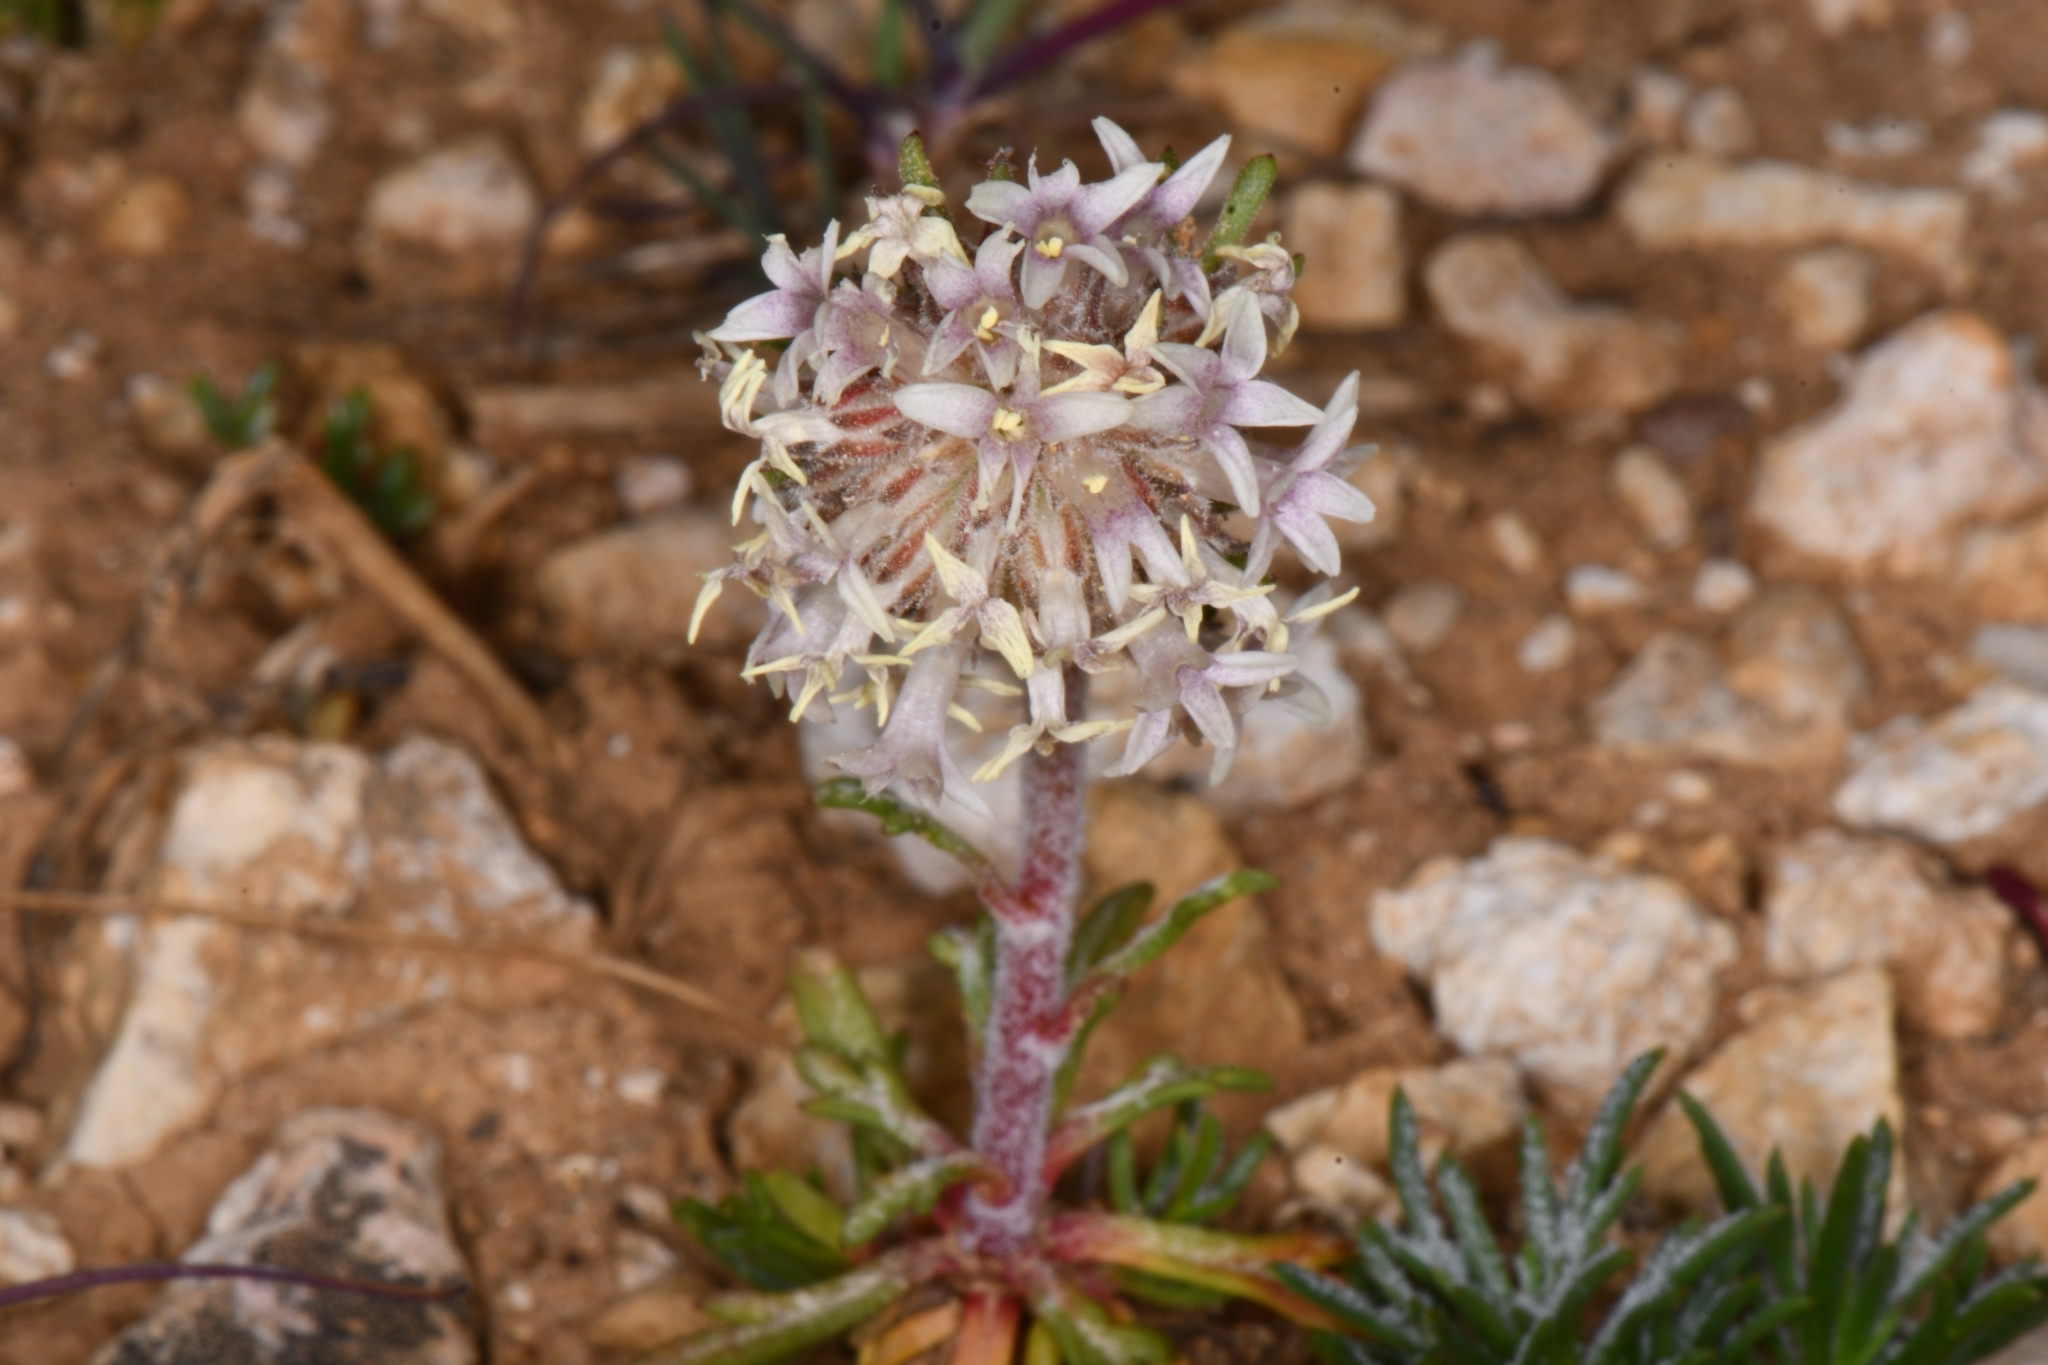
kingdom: Plantae
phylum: Tracheophyta
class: Magnoliopsida
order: Ericales
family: Polemoniaceae
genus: Ipomopsis
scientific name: Ipomopsis spicata
